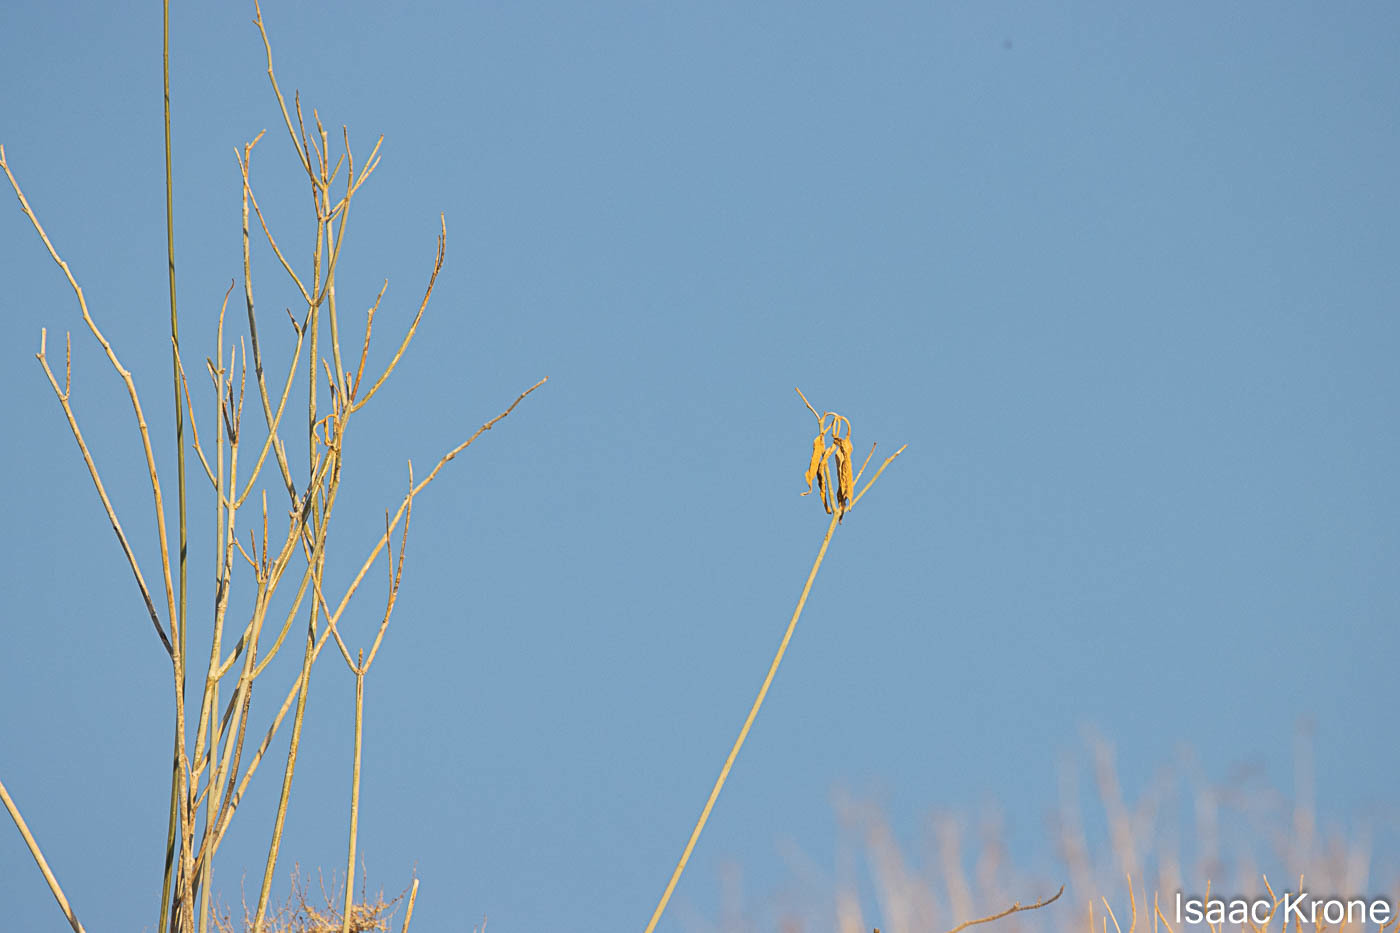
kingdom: Plantae
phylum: Tracheophyta
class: Magnoliopsida
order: Gentianales
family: Apocynaceae
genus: Asclepias
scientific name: Asclepias albicans
